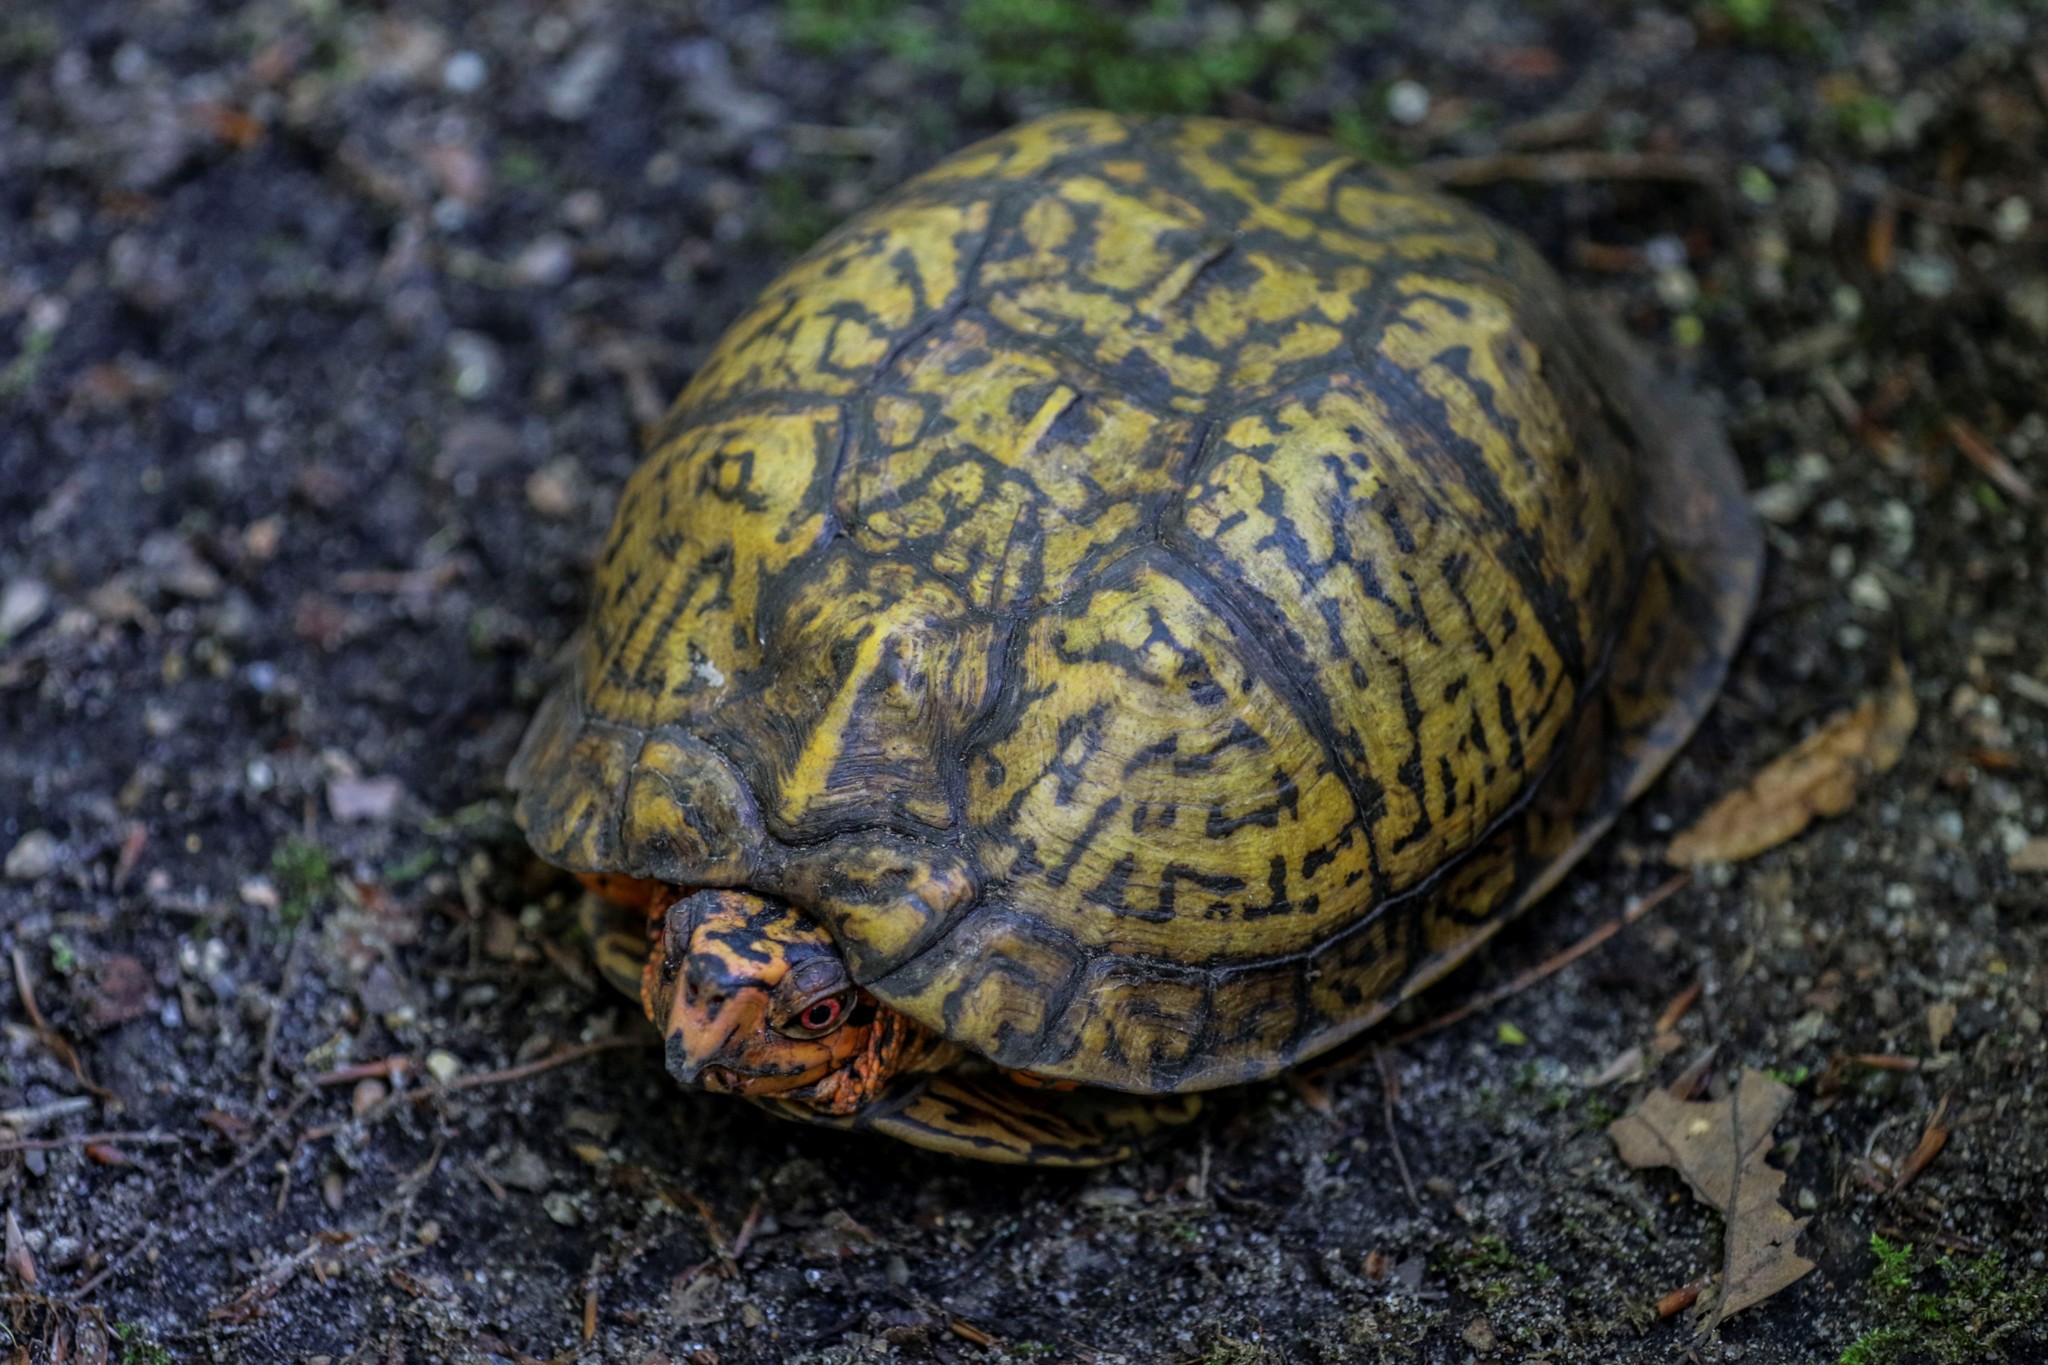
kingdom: Animalia
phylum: Chordata
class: Testudines
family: Emydidae
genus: Terrapene
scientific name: Terrapene carolina
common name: Common box turtle
